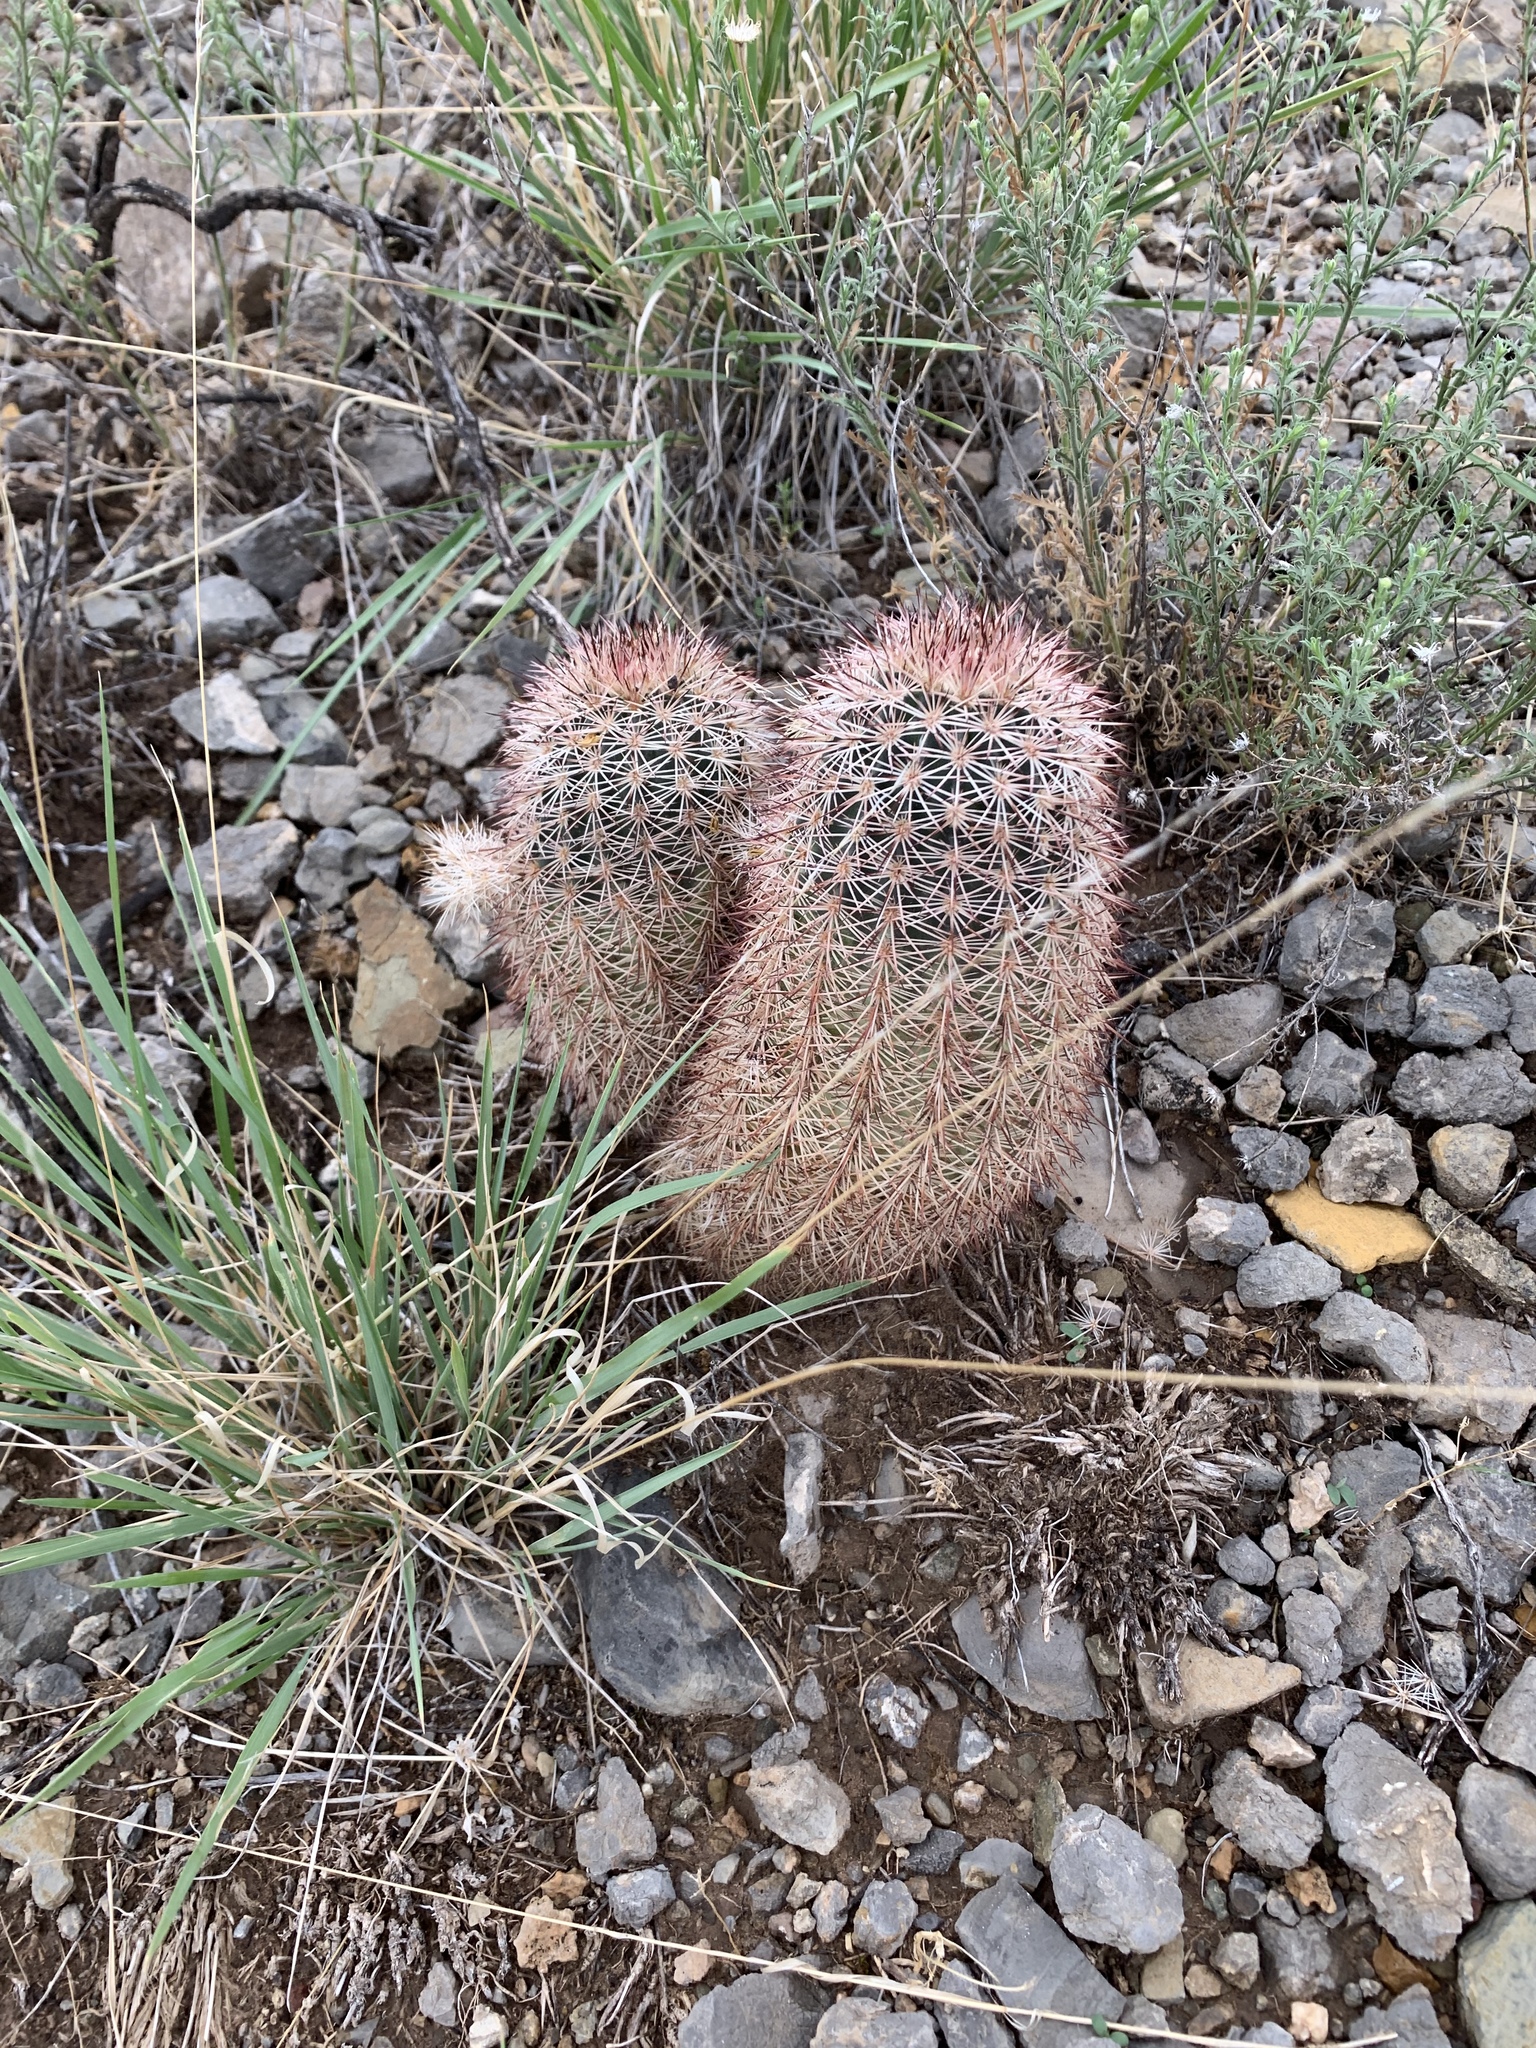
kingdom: Plantae
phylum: Tracheophyta
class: Magnoliopsida
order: Caryophyllales
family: Cactaceae
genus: Echinocereus
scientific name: Echinocereus dasyacanthus
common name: Spiny hedgehog cactus
